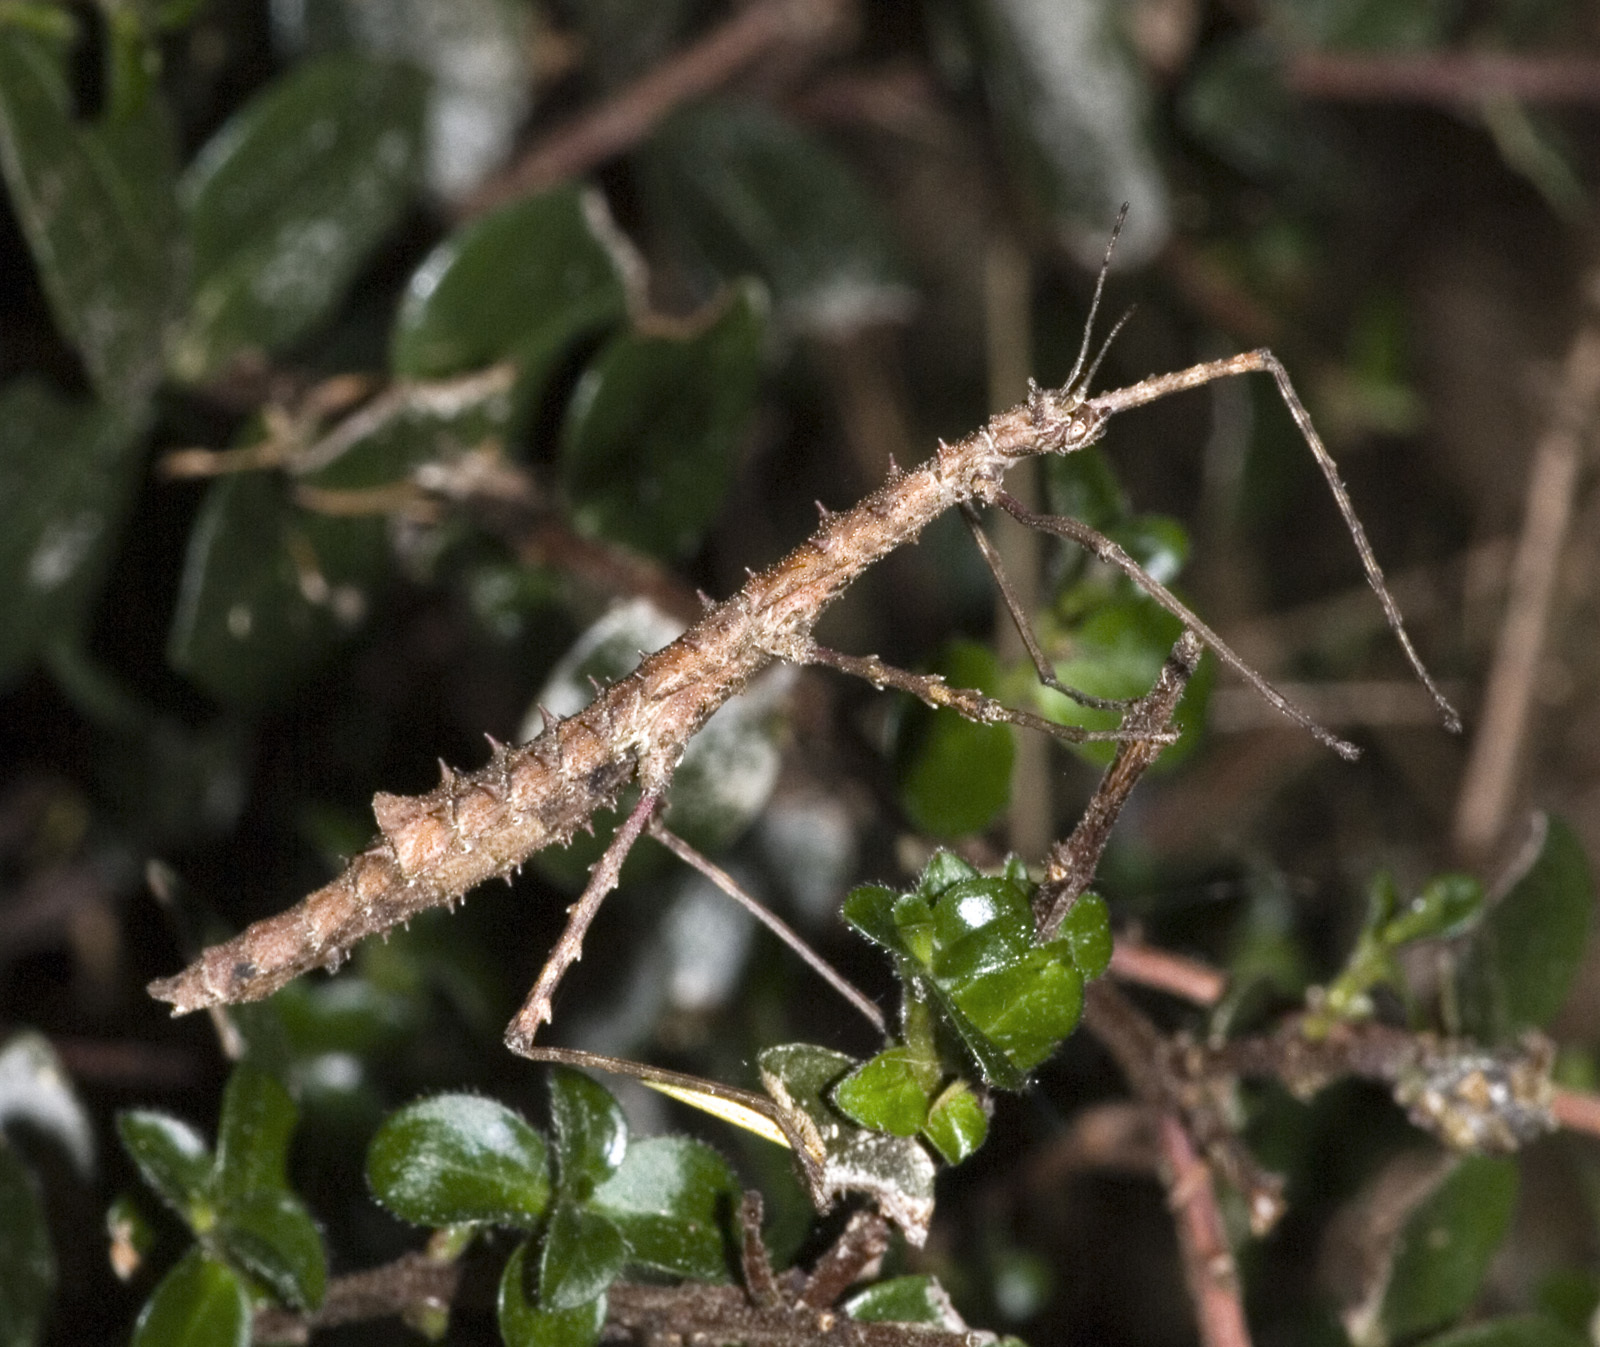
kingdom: Animalia
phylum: Arthropoda
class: Insecta
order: Phasmida
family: Phasmatidae
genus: Micrarchus
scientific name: Micrarchus hystriculeus
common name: The lesser spiny stick insect
